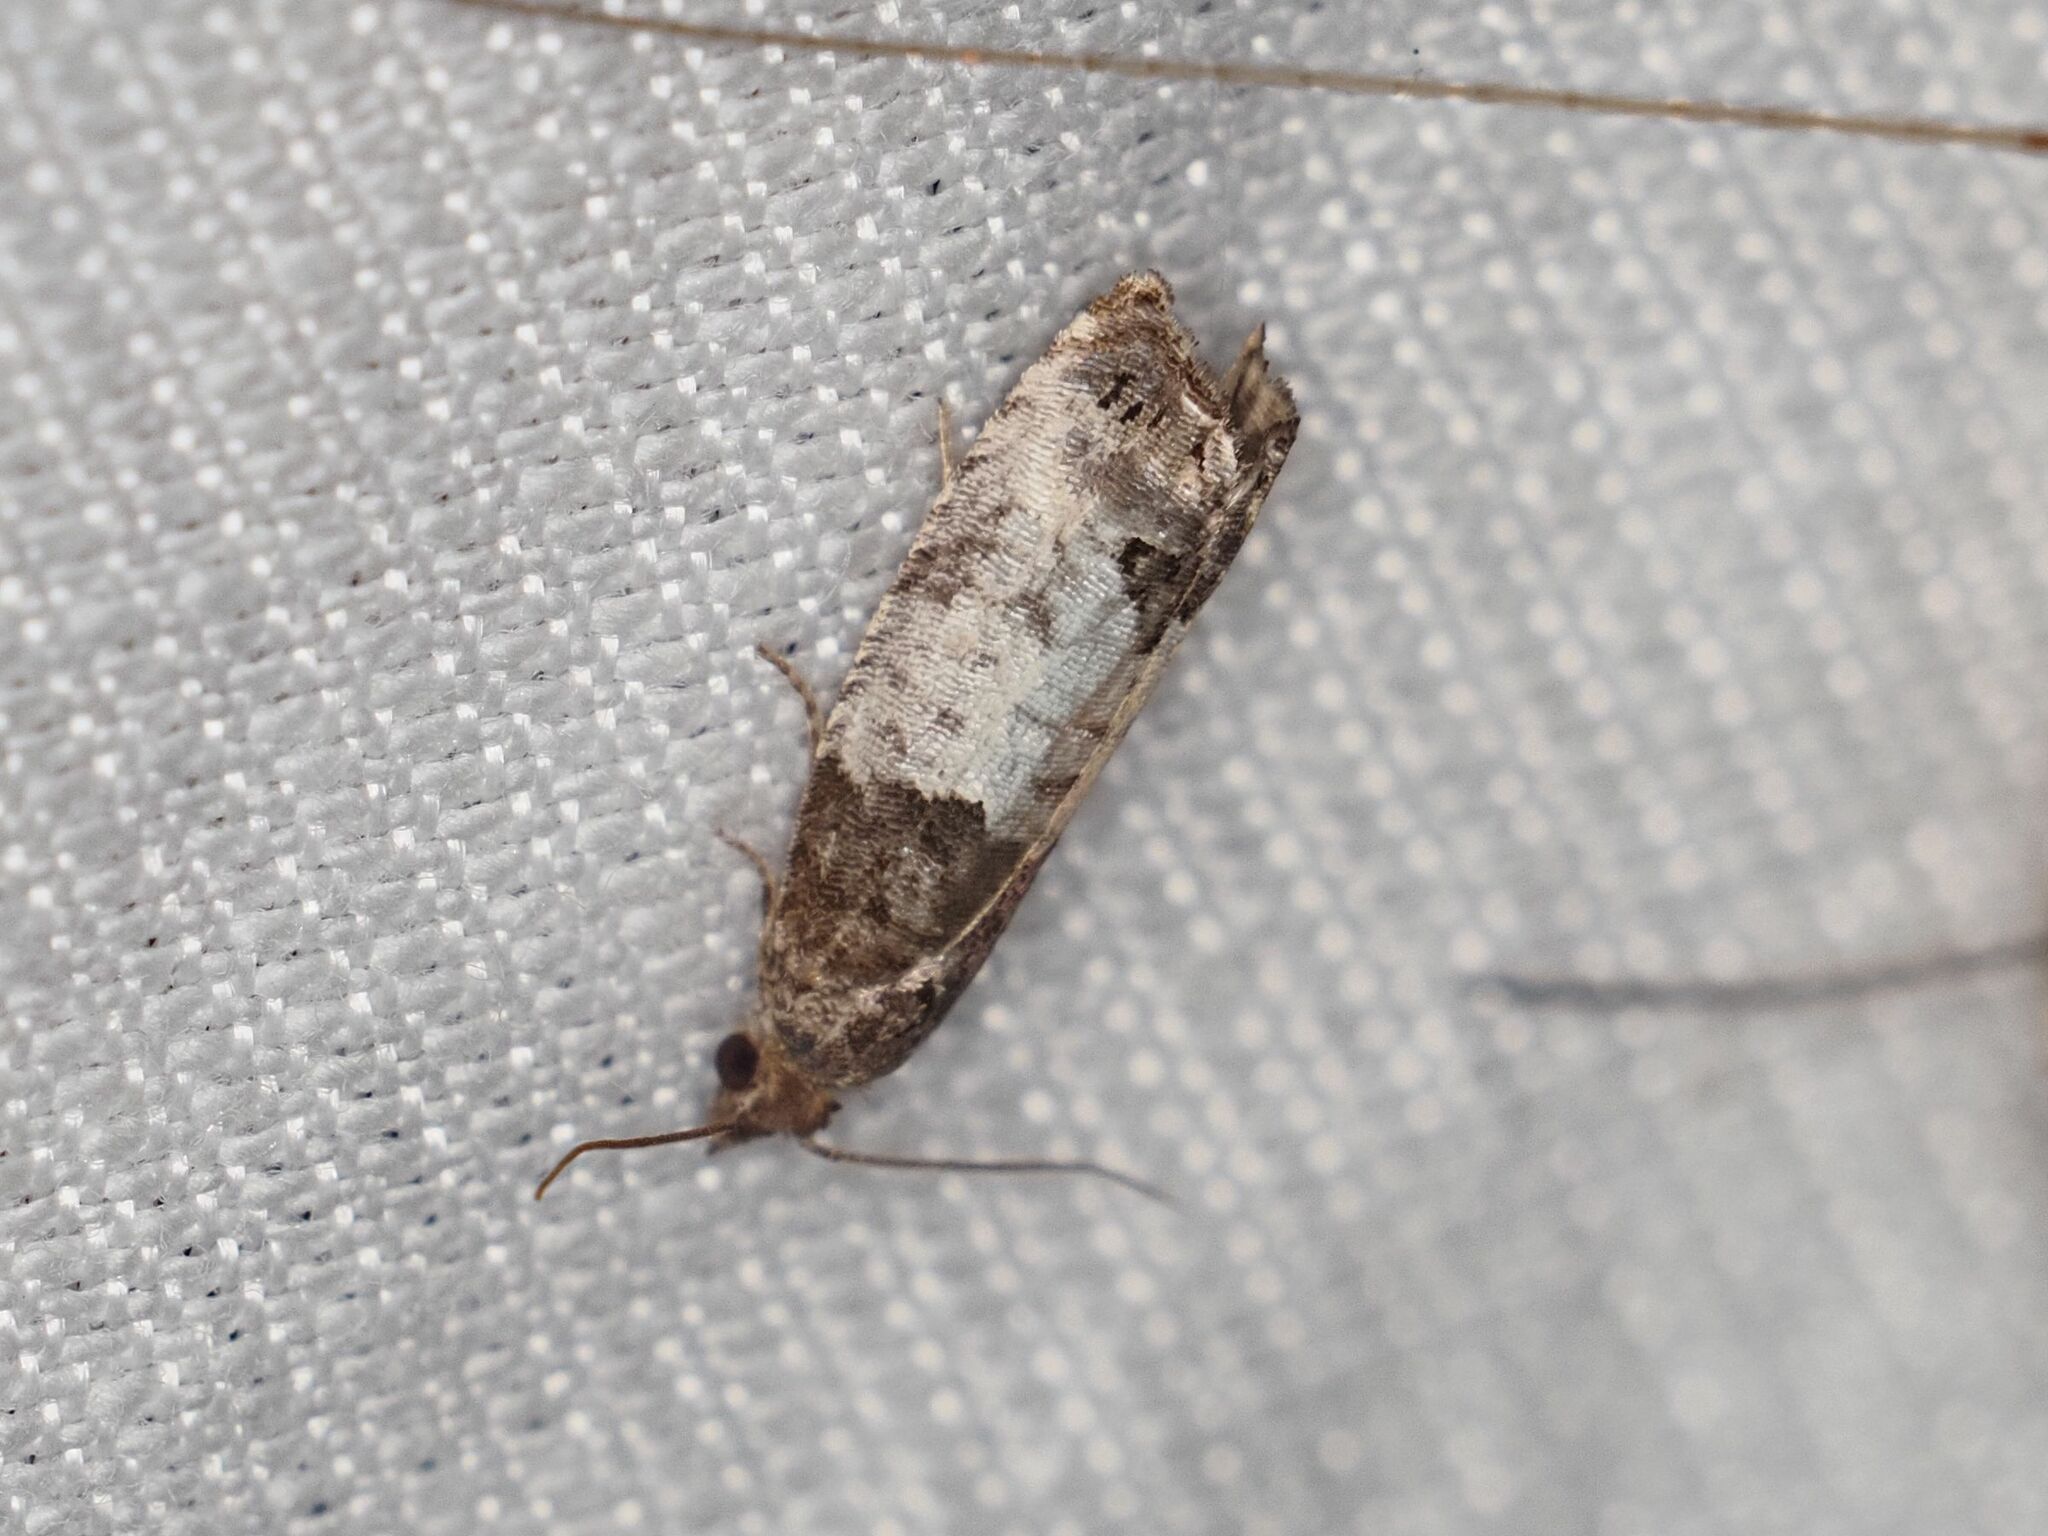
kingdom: Animalia
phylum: Arthropoda
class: Insecta
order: Lepidoptera
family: Tortricidae
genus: Spilonota
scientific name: Spilonota ocellana
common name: Bud moth
